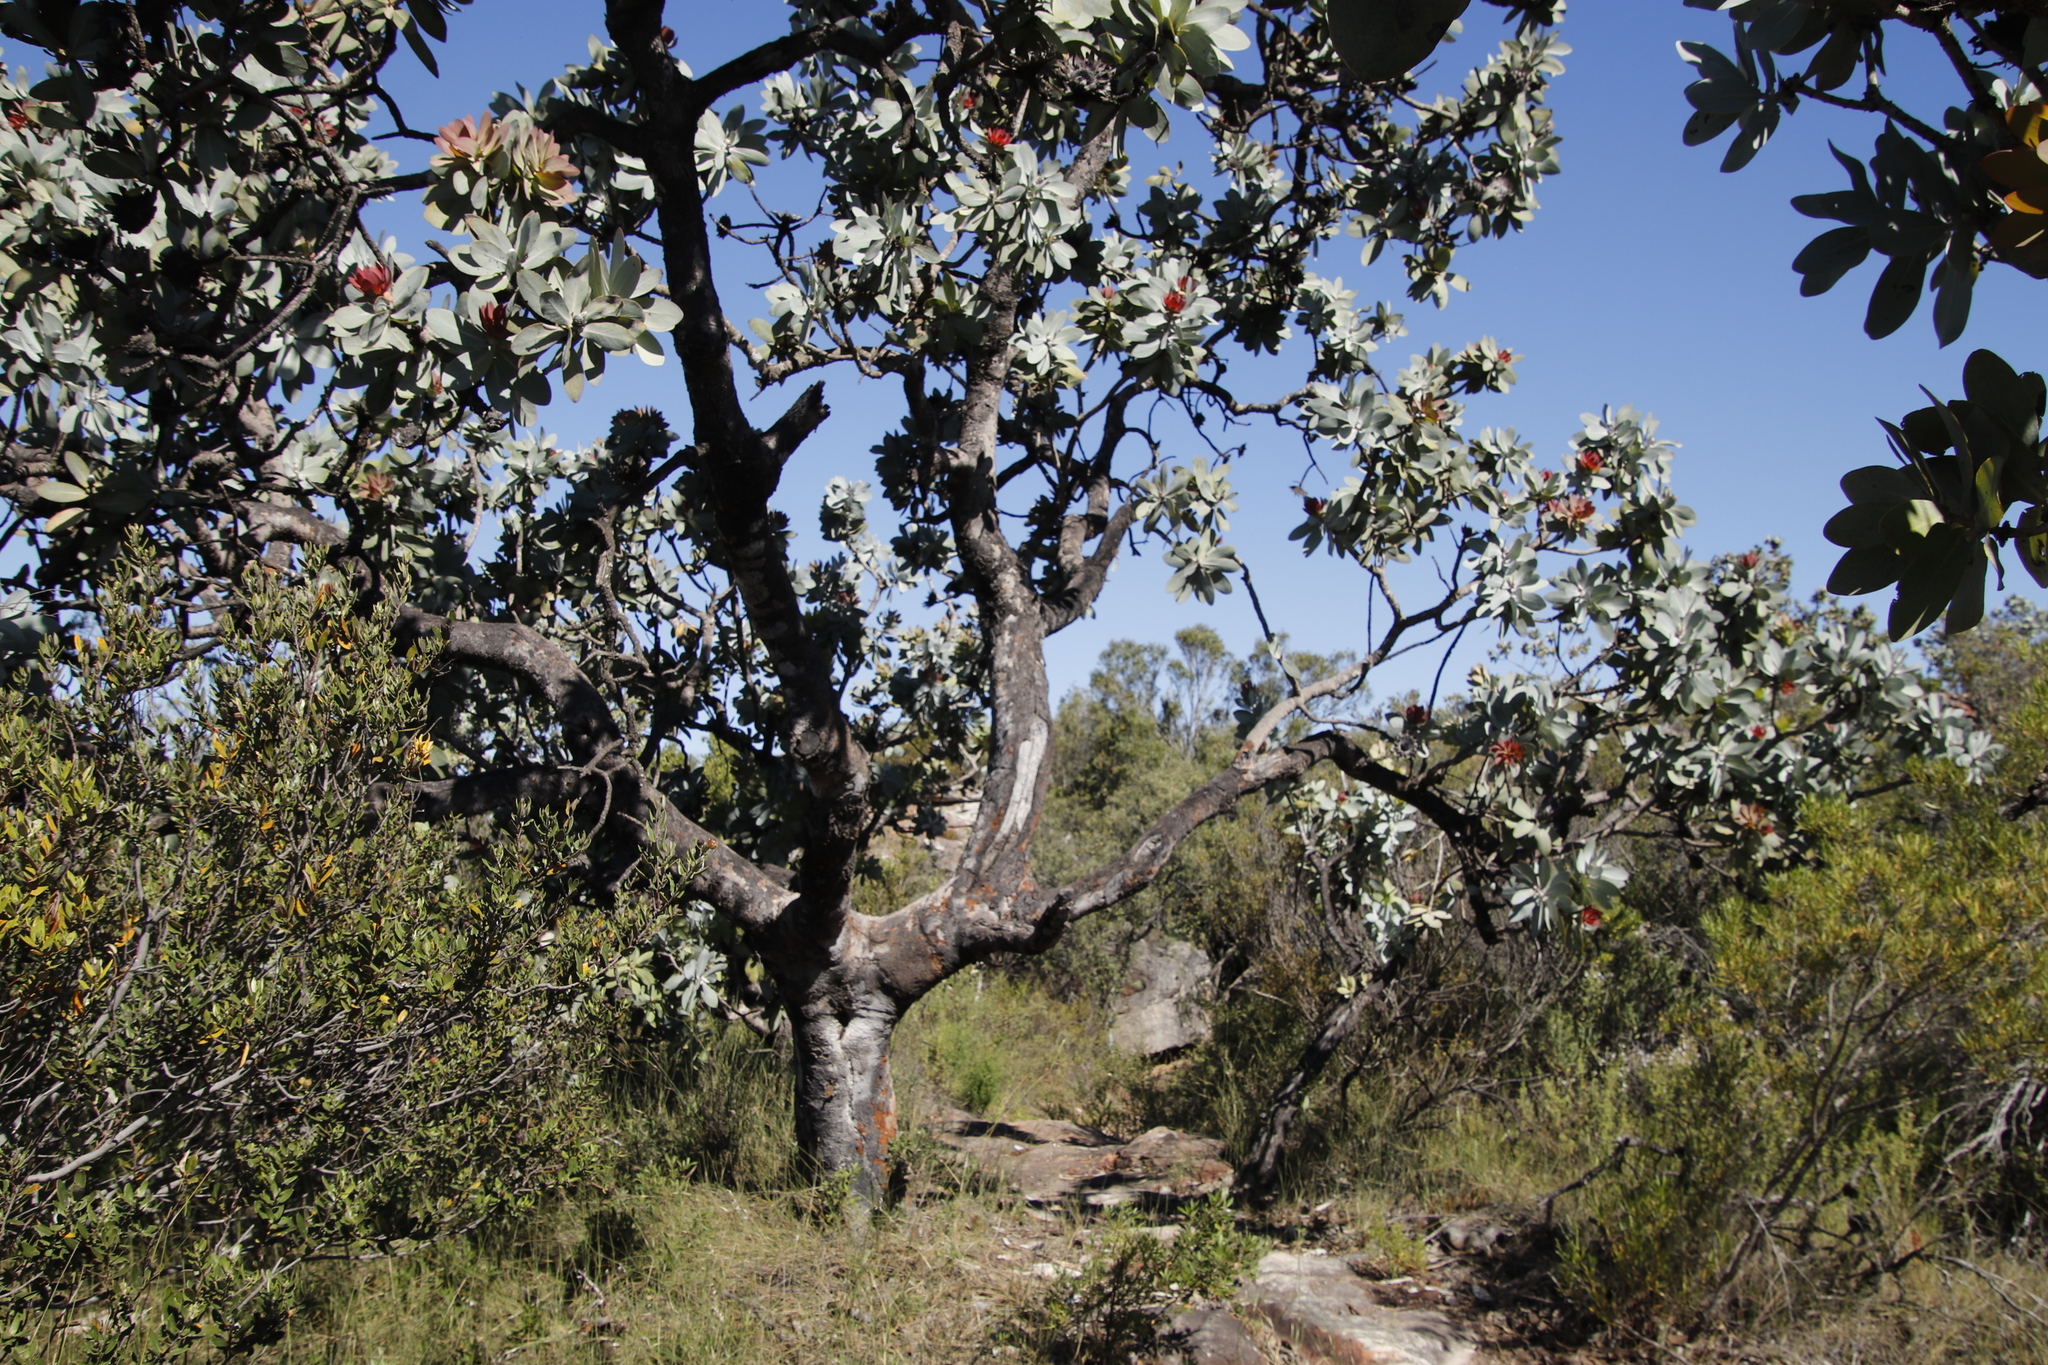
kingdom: Plantae
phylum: Tracheophyta
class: Magnoliopsida
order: Proteales
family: Proteaceae
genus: Protea
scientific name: Protea nitida
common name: Tree protea
